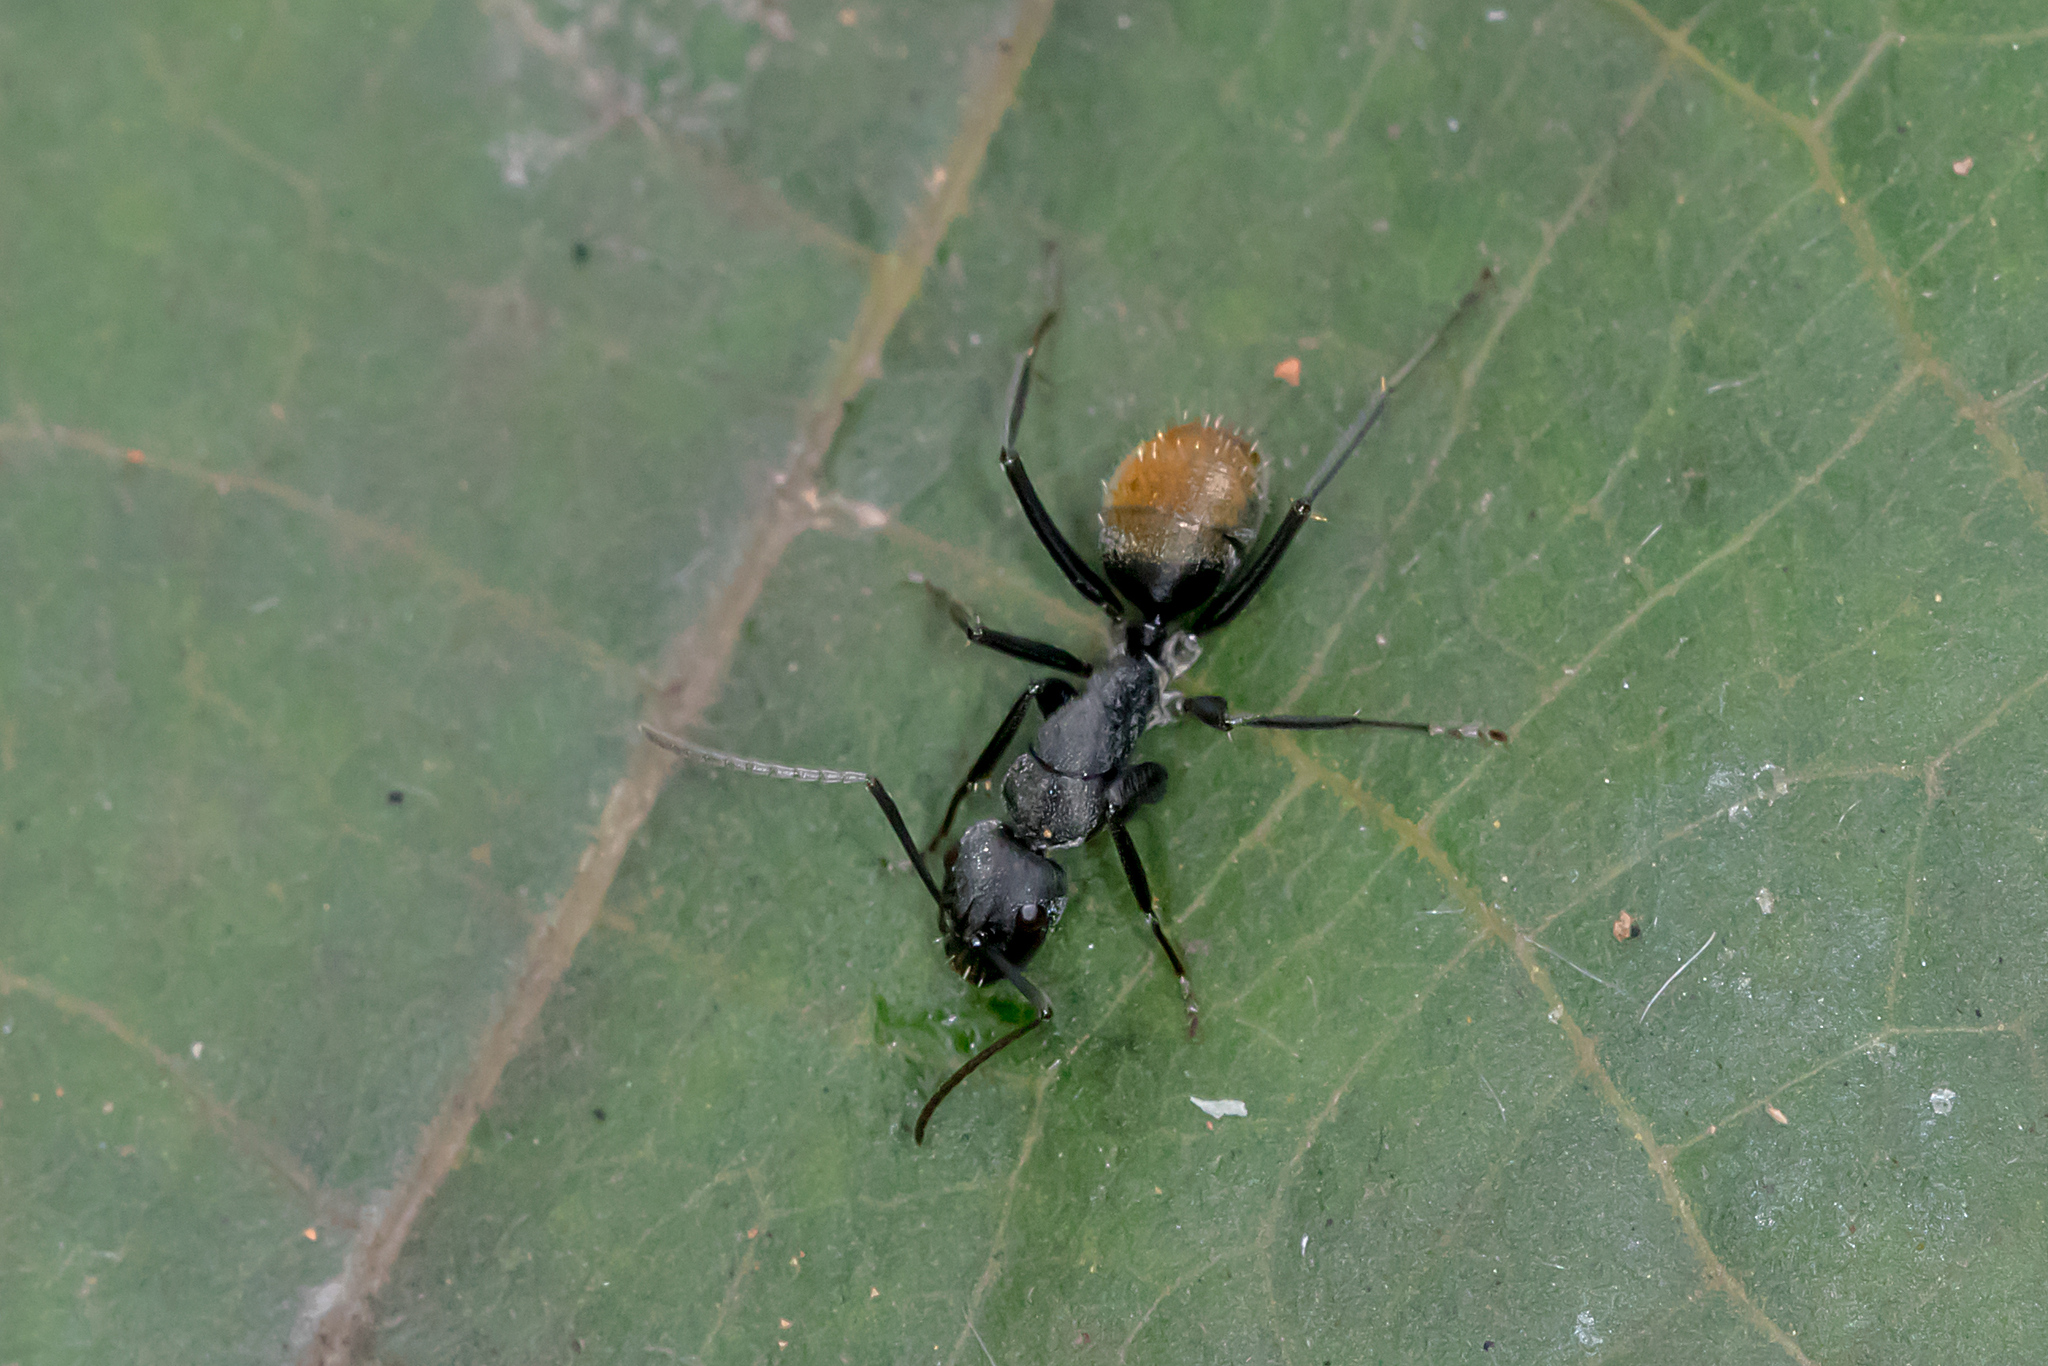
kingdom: Animalia
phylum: Arthropoda
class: Insecta
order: Hymenoptera
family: Formicidae
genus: Camponotus
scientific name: Camponotus aeneopilosus
